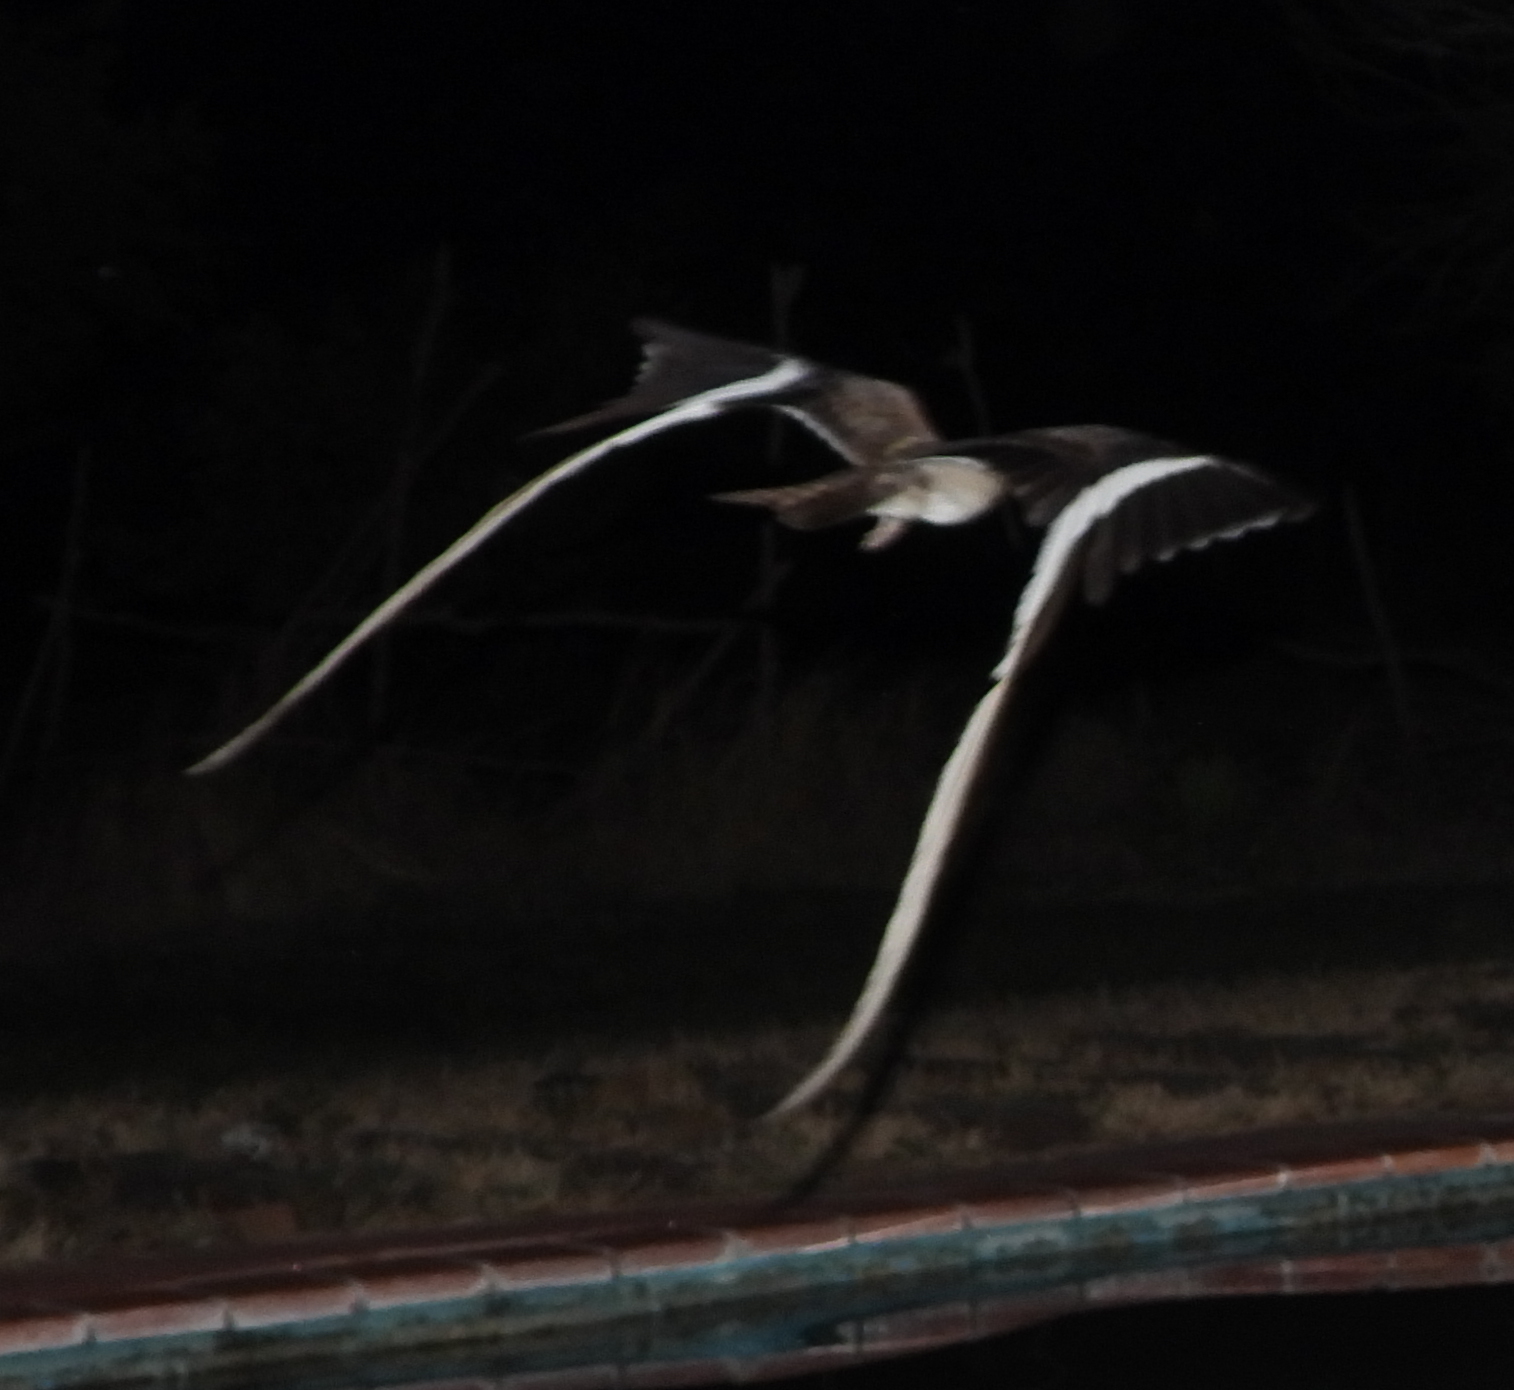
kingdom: Animalia
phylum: Chordata
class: Aves
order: Caprimulgiformes
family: Caprimulgidae
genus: Caprimulgus
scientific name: Caprimulgus vexillarius
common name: Pennant-winged nightjar
